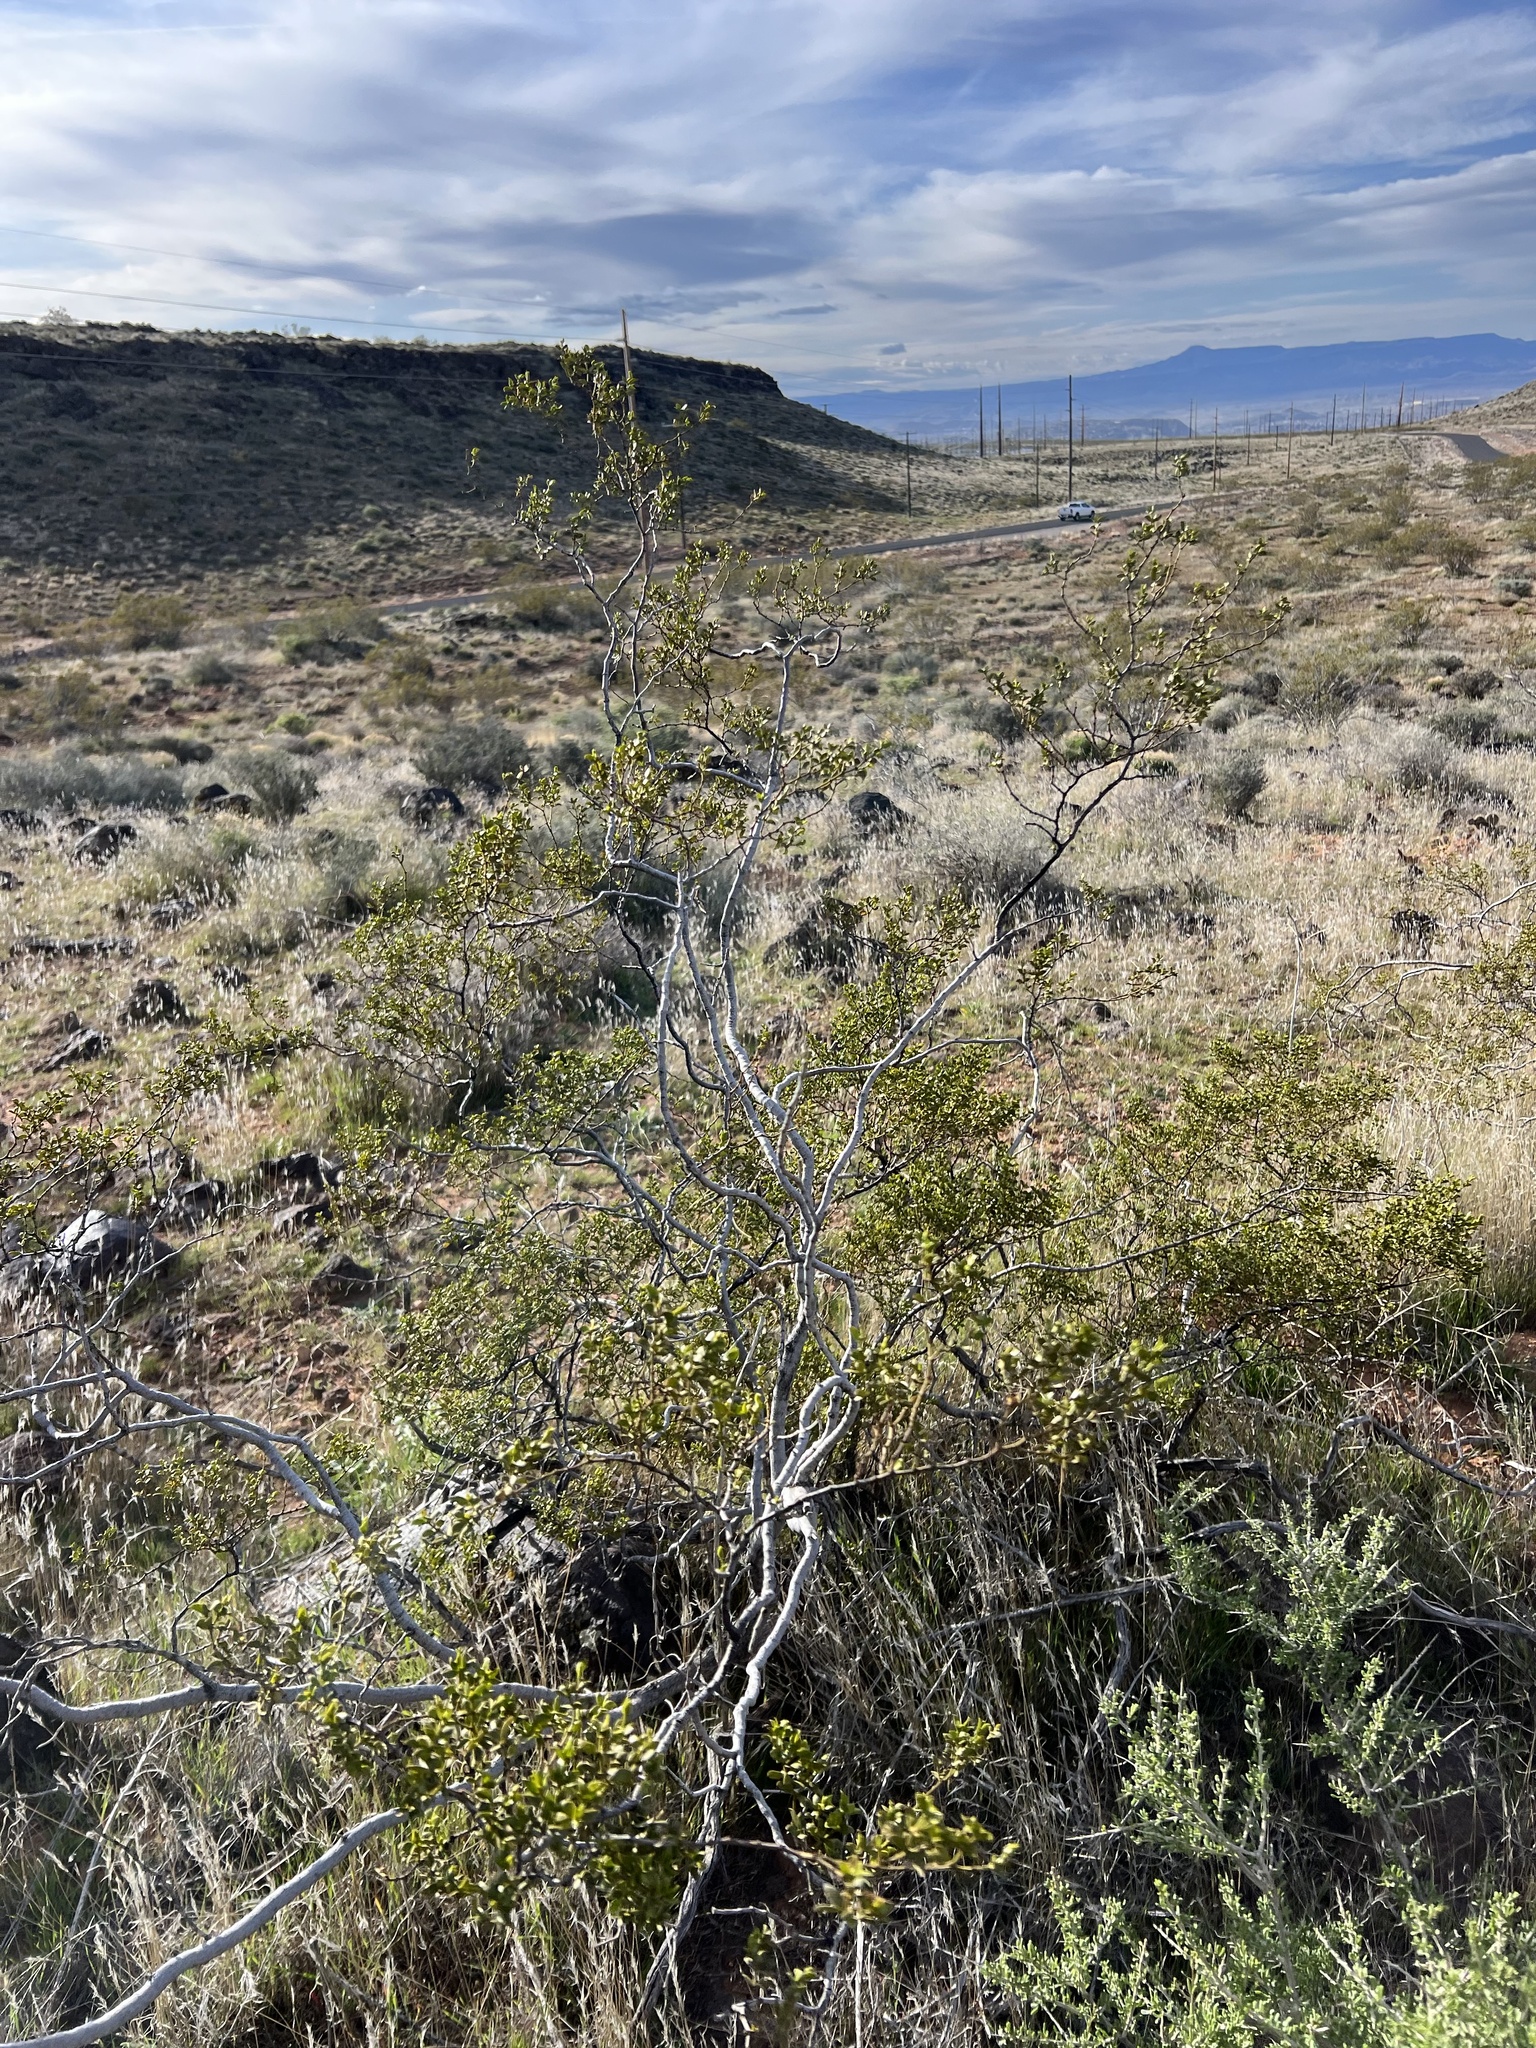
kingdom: Plantae
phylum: Tracheophyta
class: Magnoliopsida
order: Zygophyllales
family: Zygophyllaceae
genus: Larrea
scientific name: Larrea tridentata
